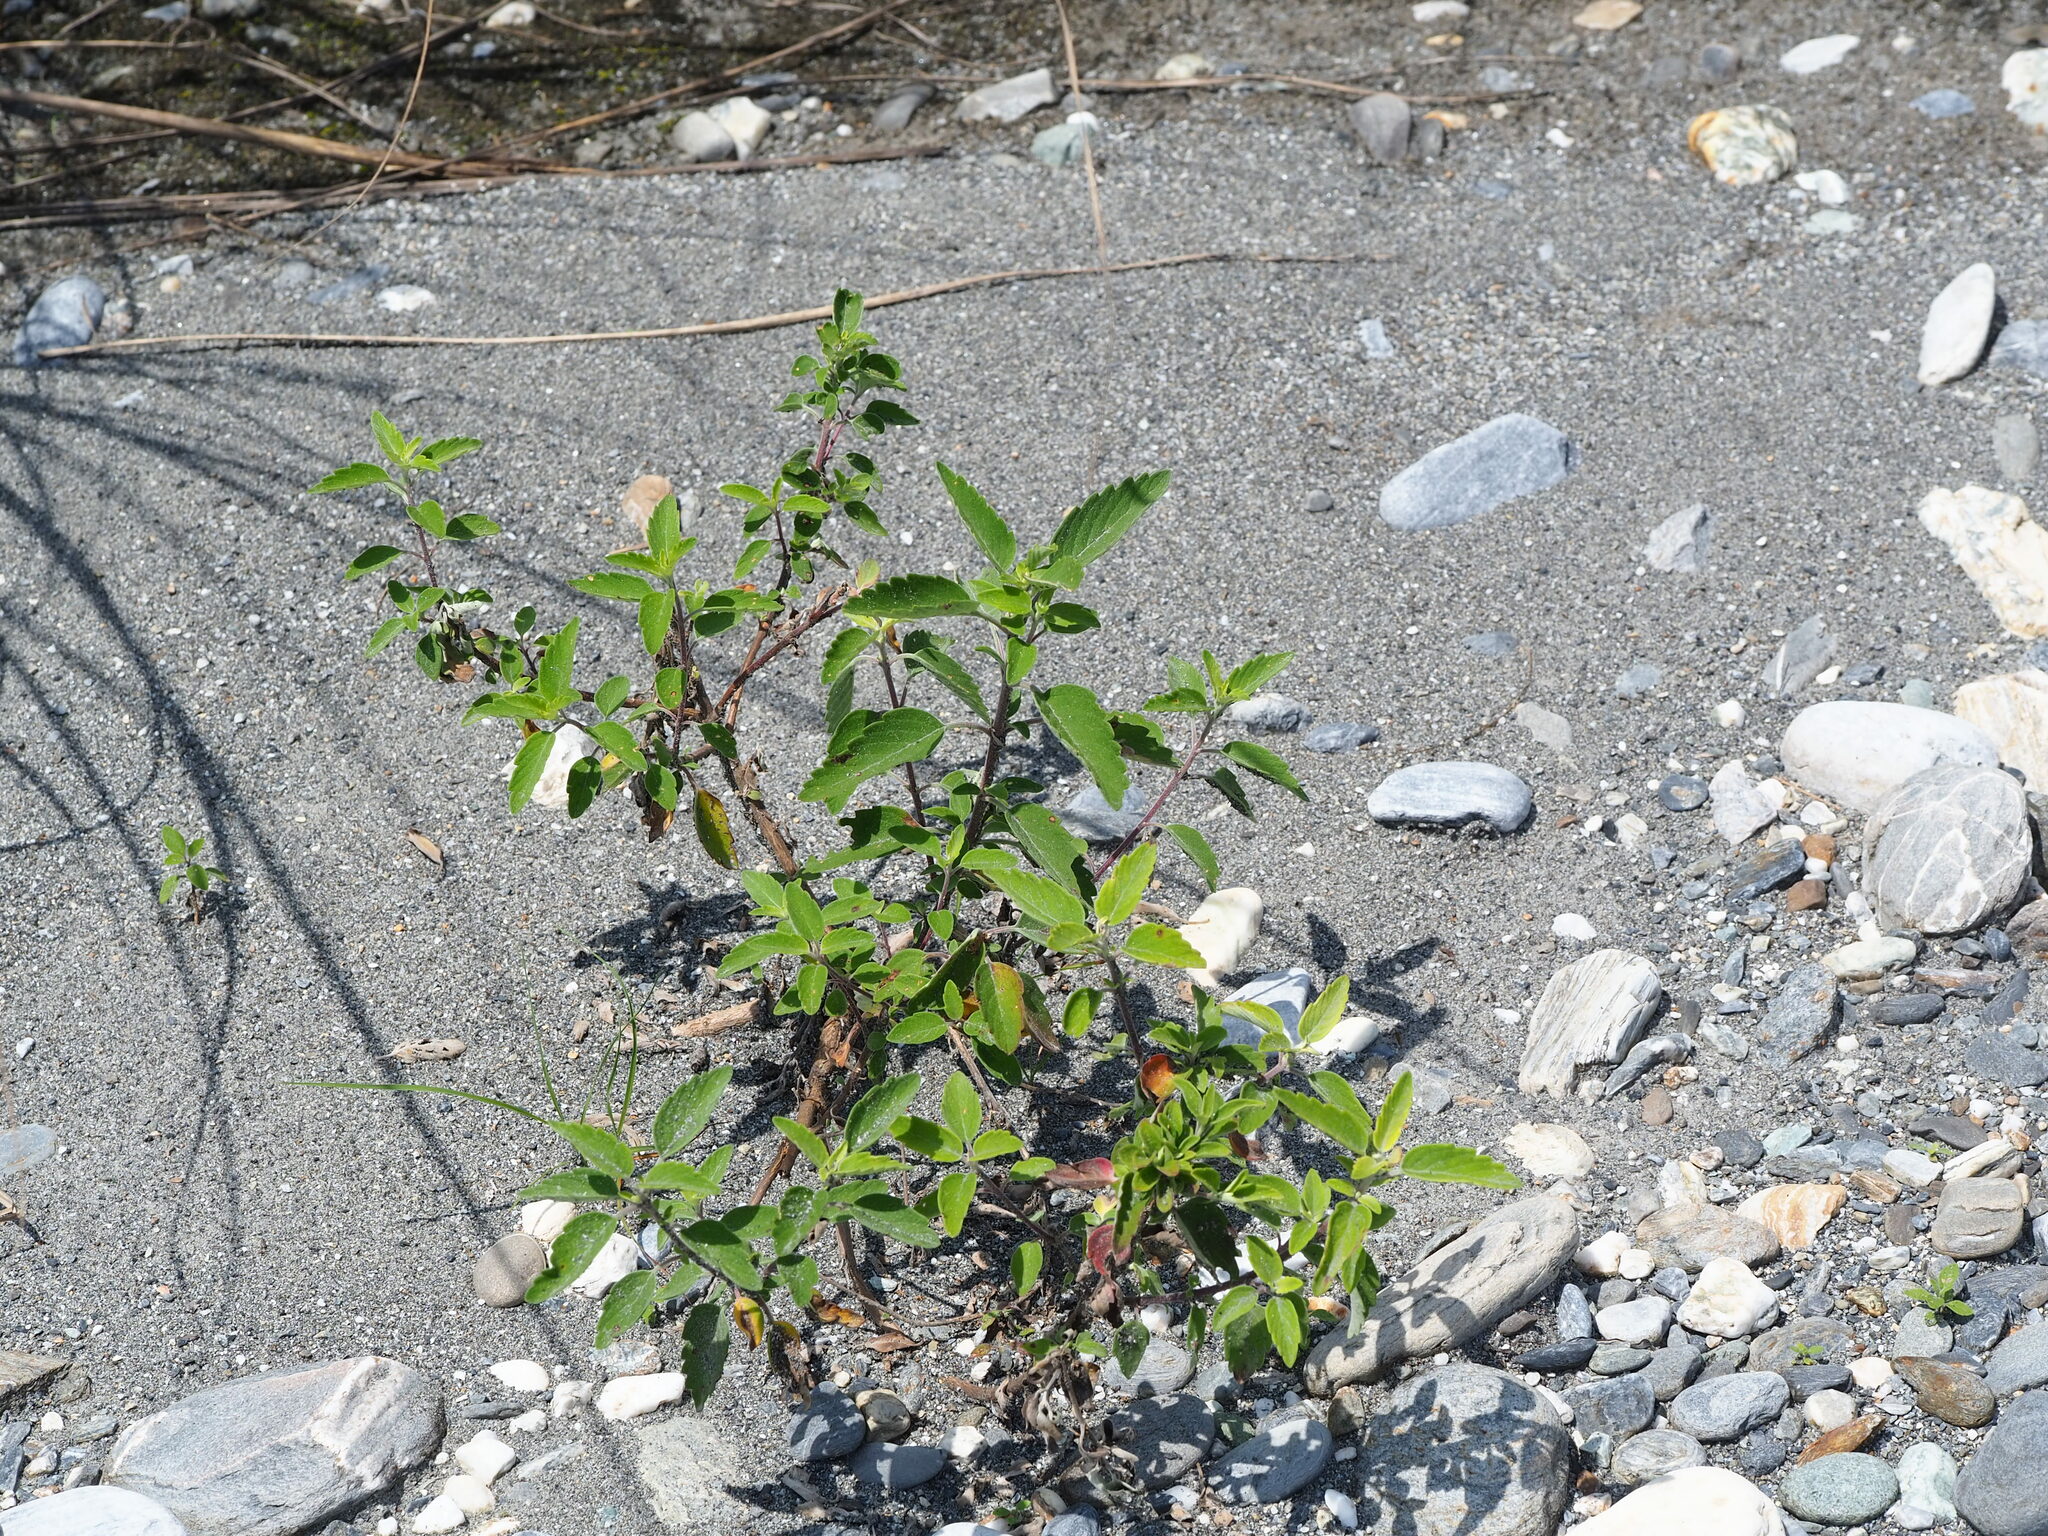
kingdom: Plantae
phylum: Tracheophyta
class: Magnoliopsida
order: Lamiales
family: Lamiaceae
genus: Caryopteris
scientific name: Caryopteris incana
